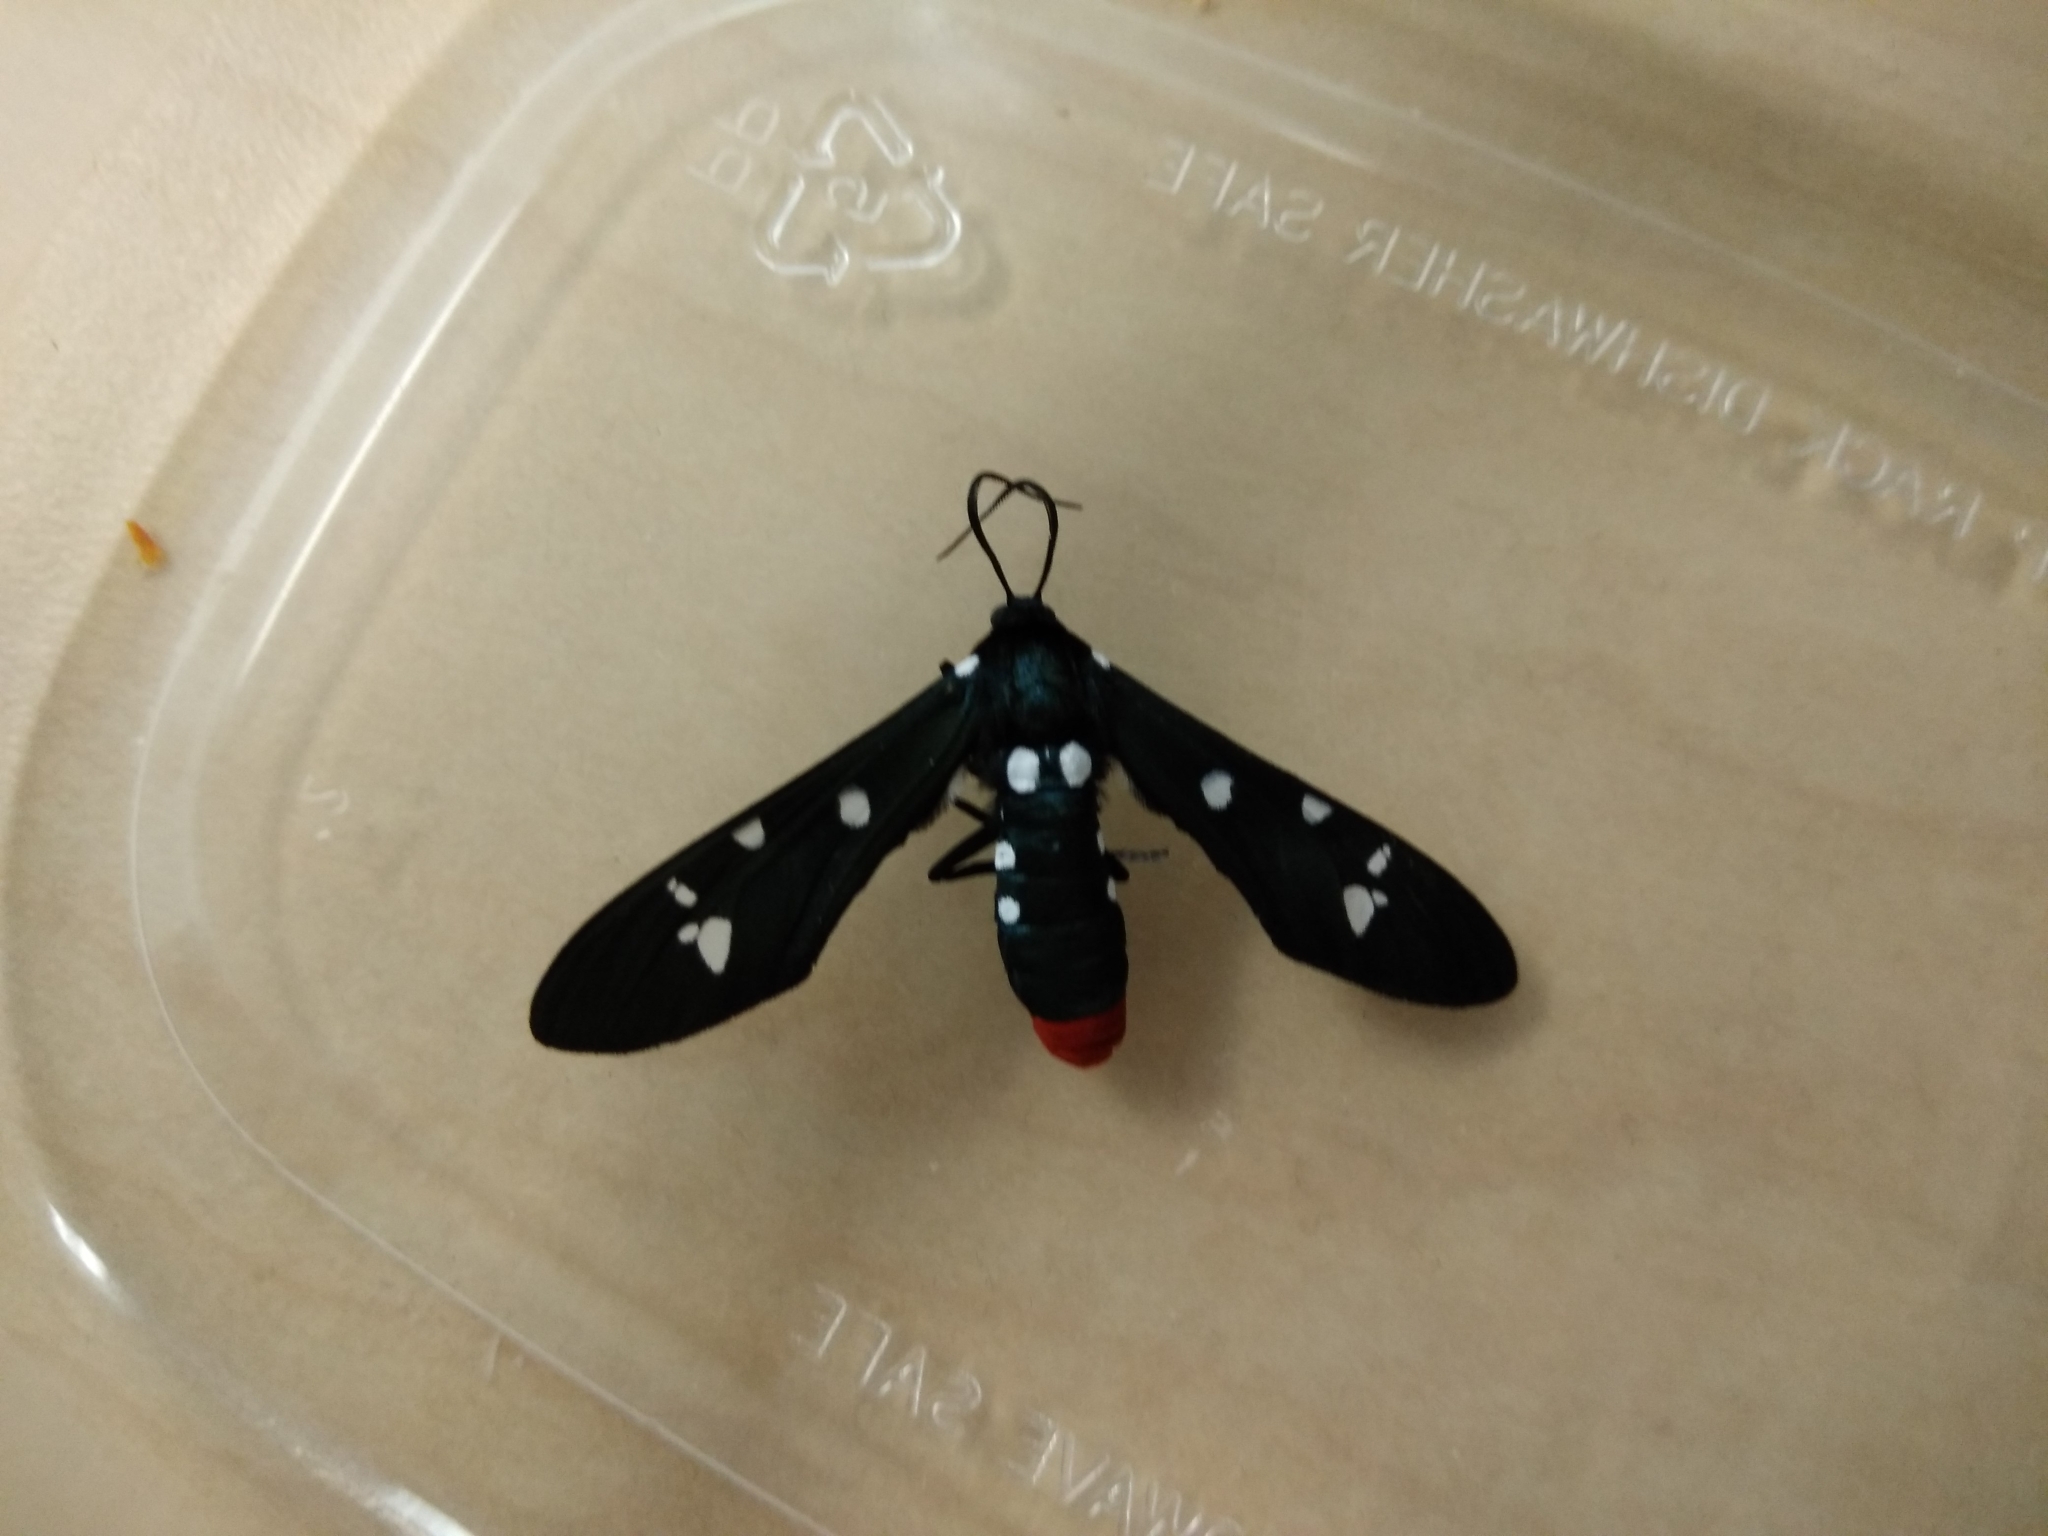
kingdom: Animalia
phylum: Arthropoda
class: Insecta
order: Lepidoptera
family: Erebidae
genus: Syntomeida
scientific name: Syntomeida epilais
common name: Polka-dot wasp moth
